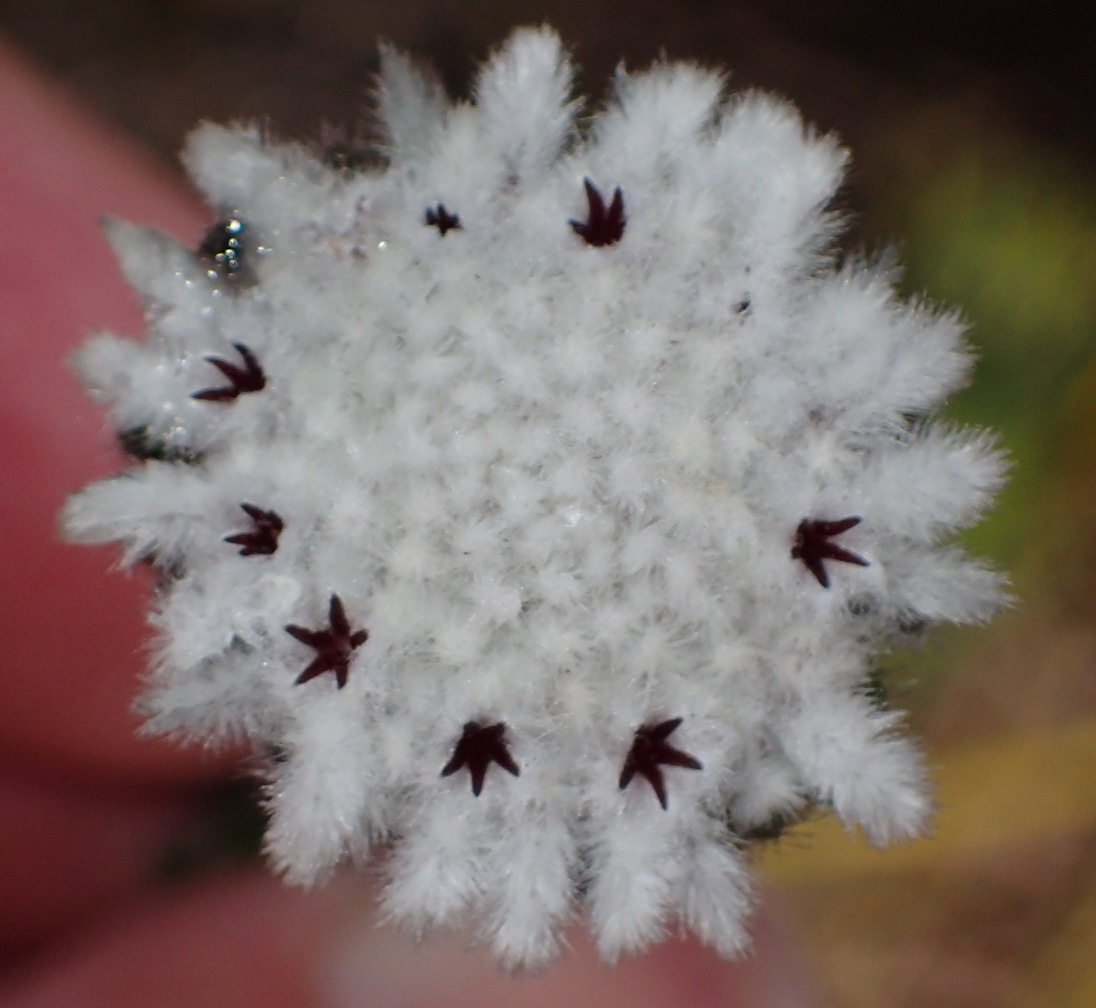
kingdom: Plantae
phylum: Tracheophyta
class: Magnoliopsida
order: Rosales
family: Rhamnaceae
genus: Phylica
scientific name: Phylica curvifolia
